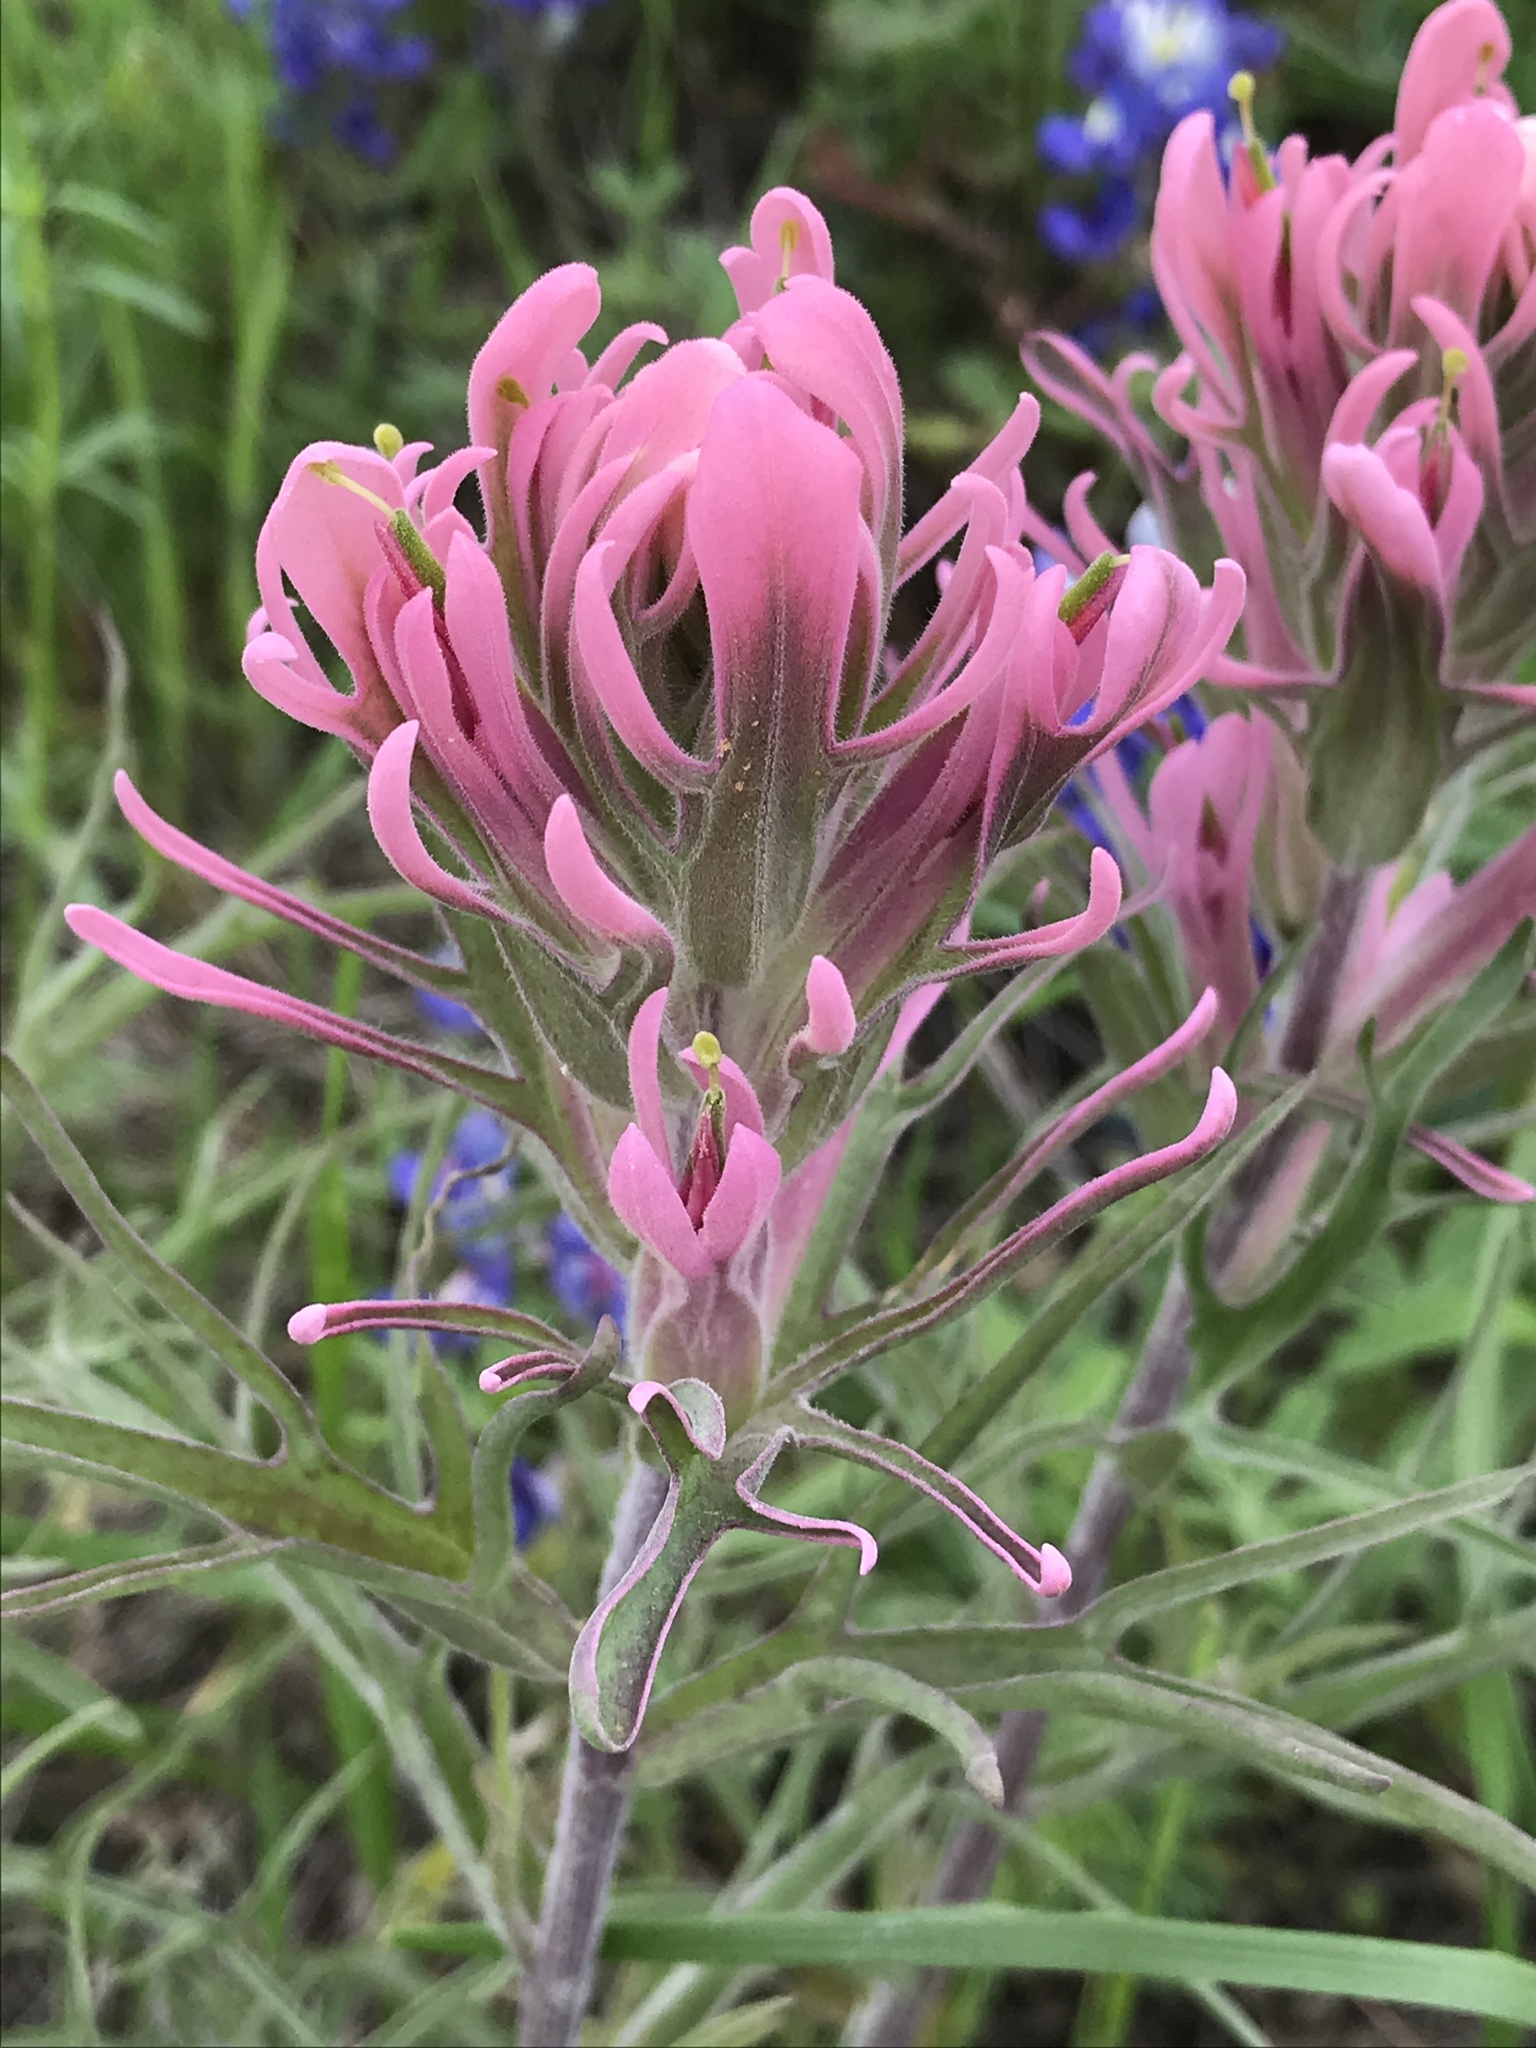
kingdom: Plantae
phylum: Tracheophyta
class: Magnoliopsida
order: Lamiales
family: Orobanchaceae
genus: Castilleja
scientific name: Castilleja purpurea
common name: Plains paintbrush
